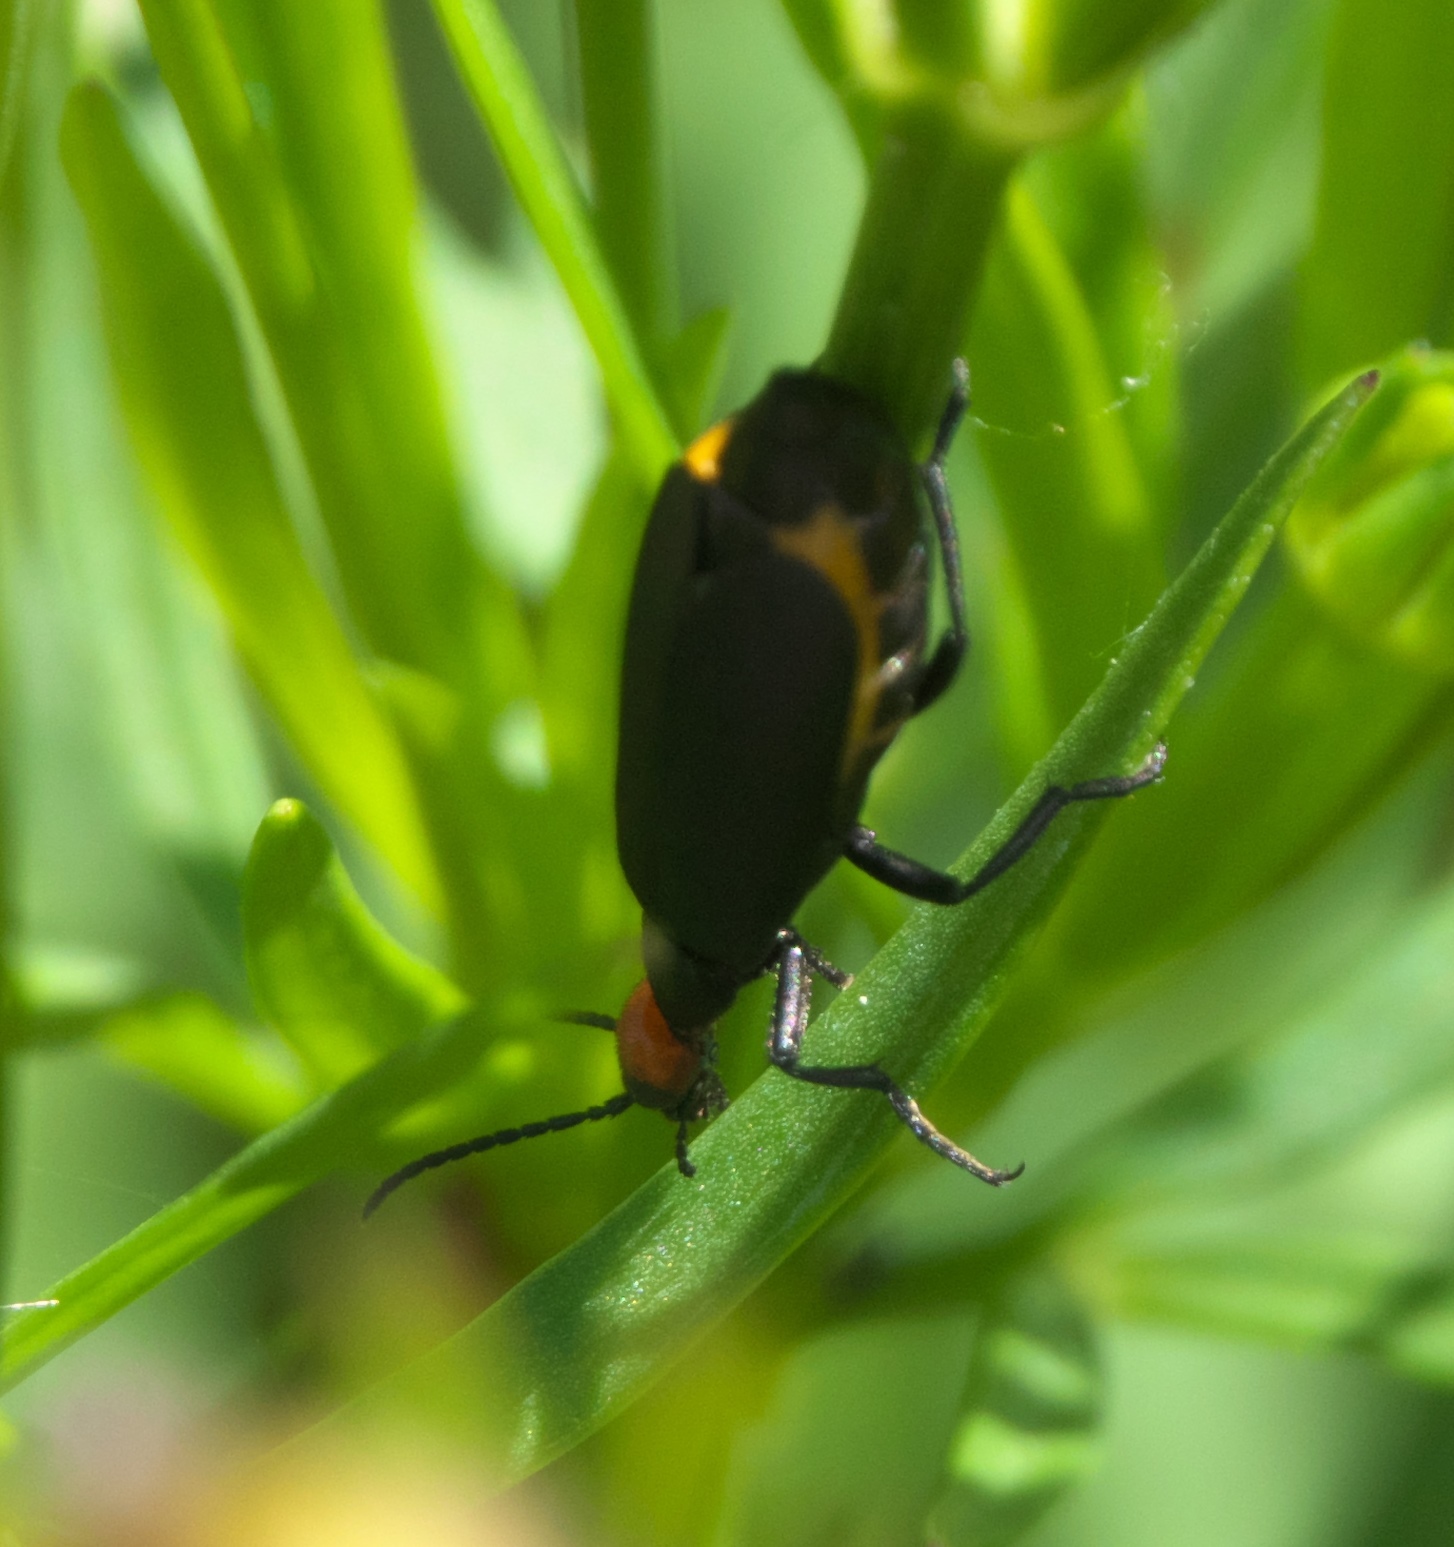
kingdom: Animalia
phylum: Arthropoda
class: Insecta
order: Coleoptera
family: Meloidae
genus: Epicauta
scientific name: Epicauta atrata
